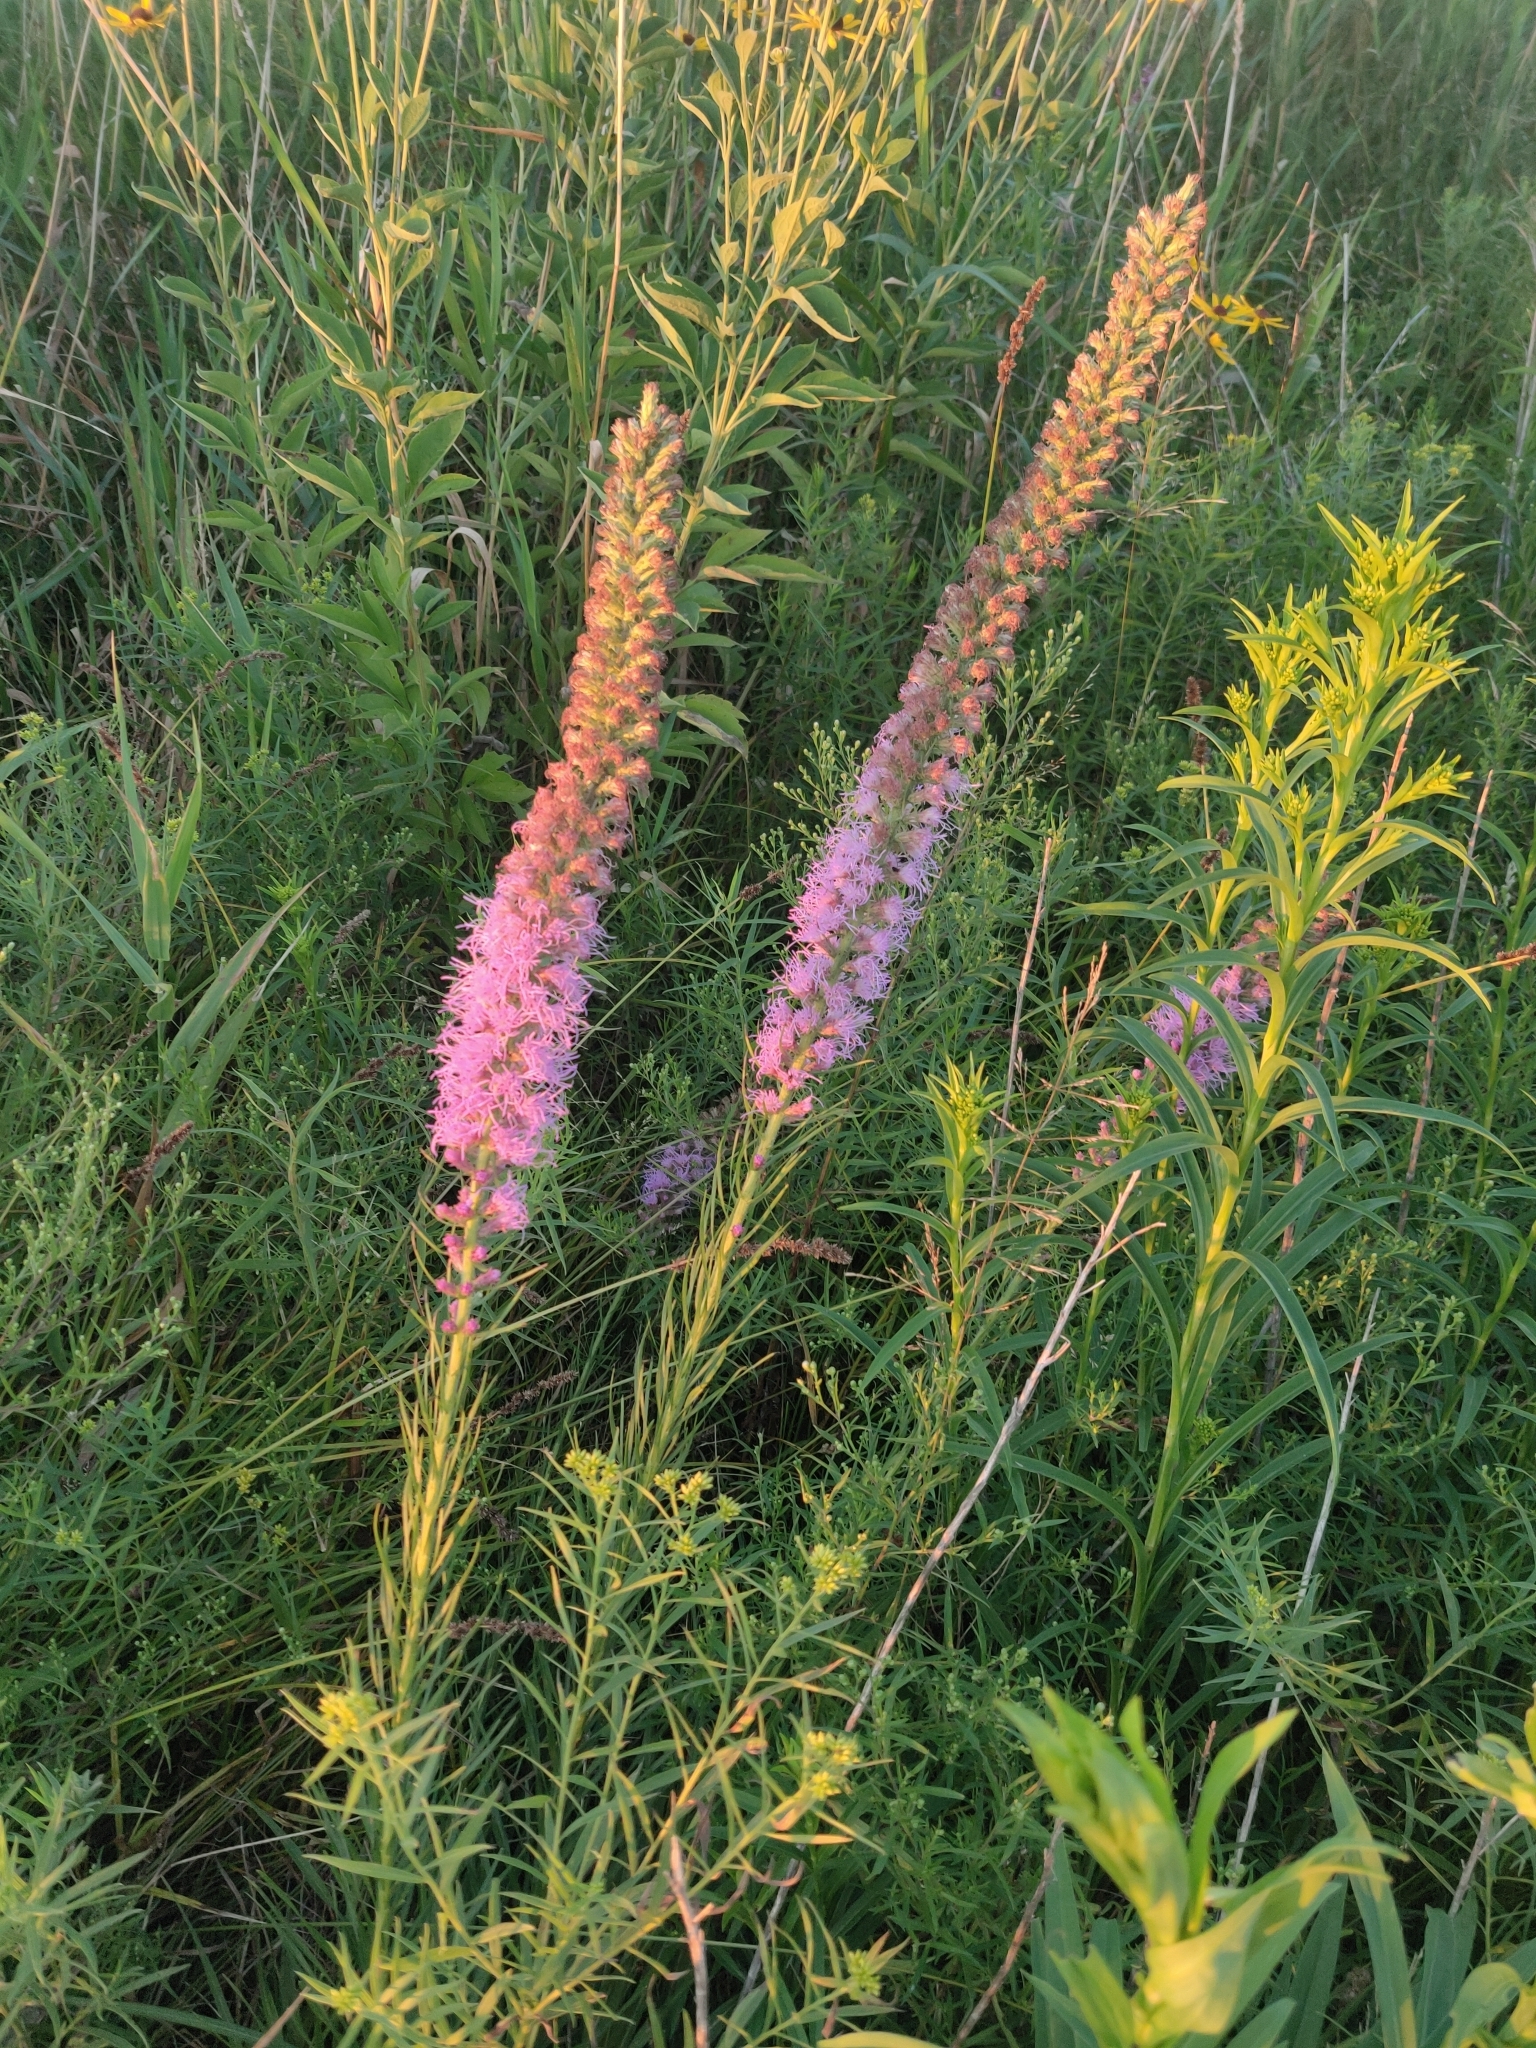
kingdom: Plantae
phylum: Tracheophyta
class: Magnoliopsida
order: Asterales
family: Asteraceae
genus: Liatris
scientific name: Liatris pycnostachya
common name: Cattail gayfeather
